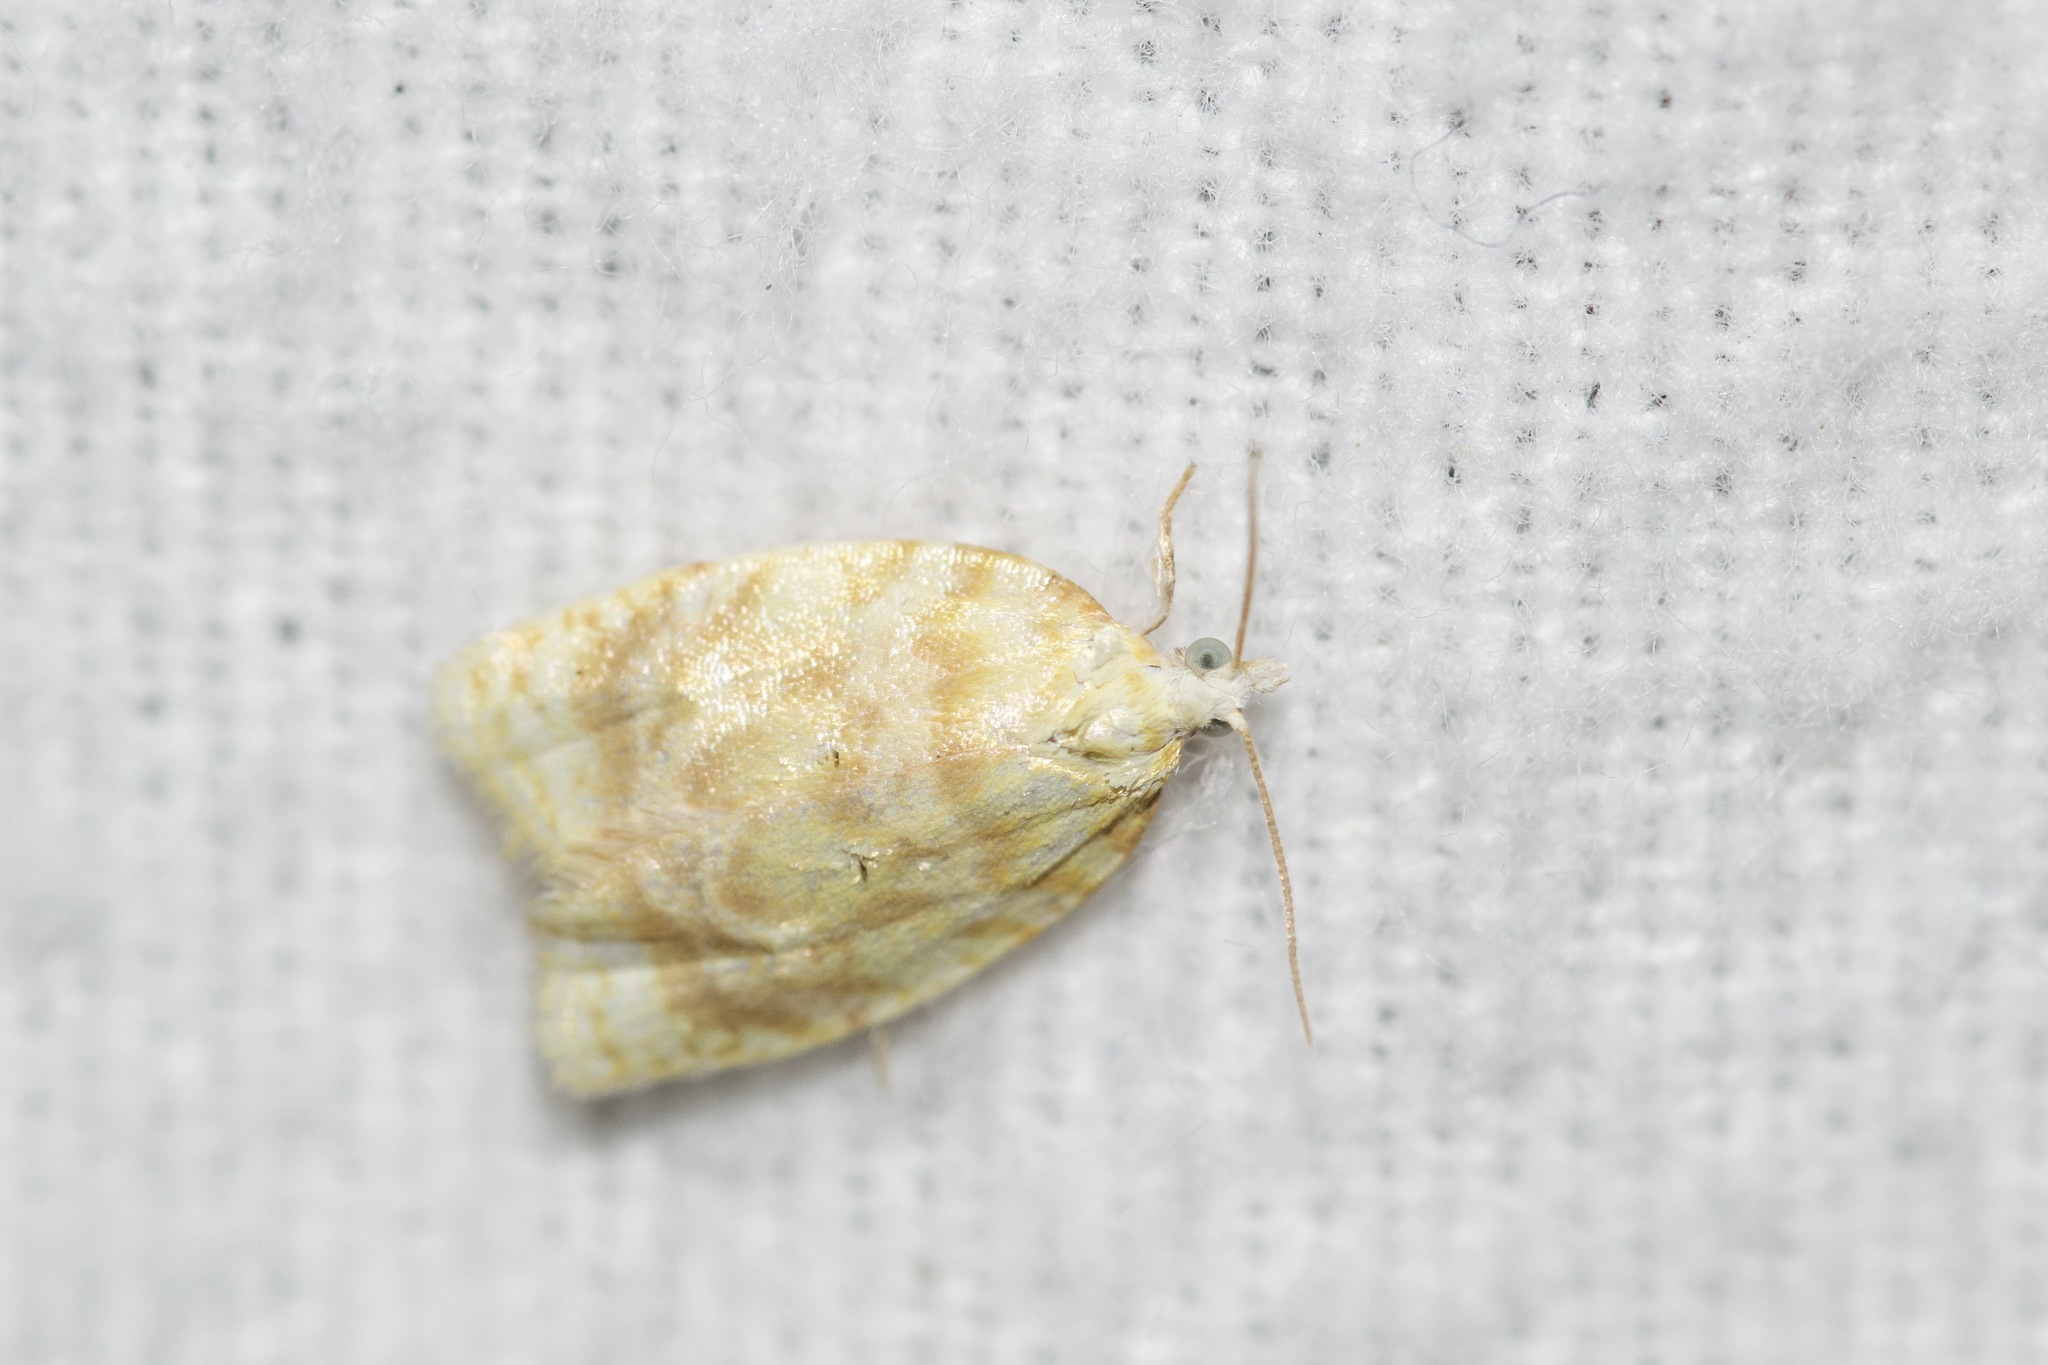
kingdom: Animalia
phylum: Arthropoda
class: Insecta
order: Lepidoptera
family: Tortricidae
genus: Acleris
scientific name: Acleris semipurpurana
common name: Oak leaftier moth
